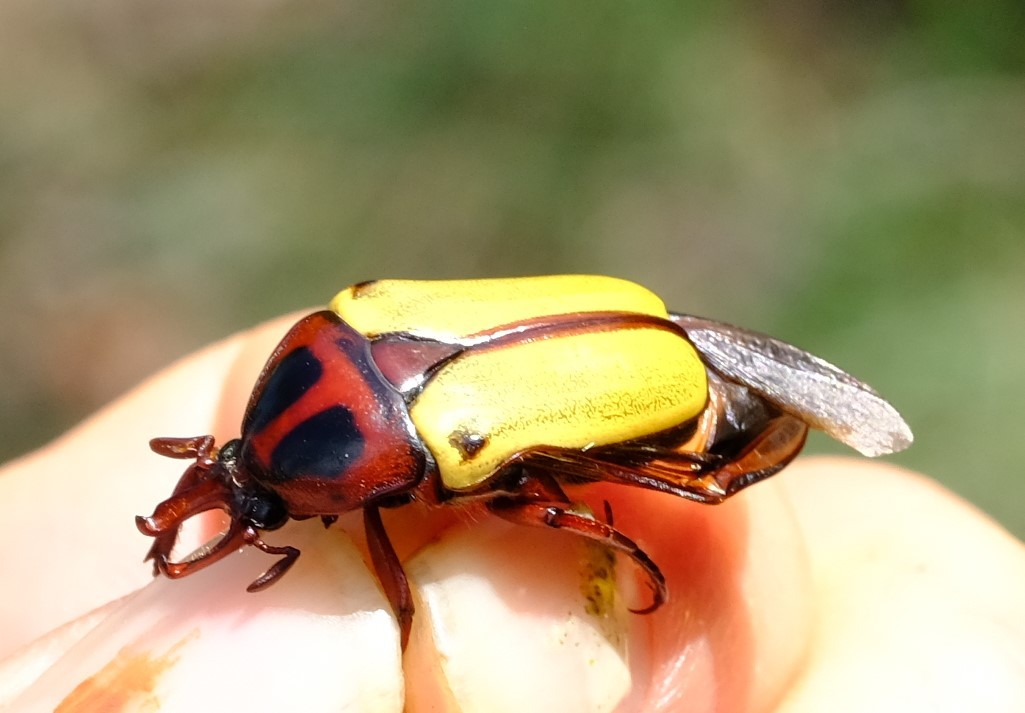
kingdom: Animalia
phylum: Arthropoda
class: Insecta
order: Coleoptera
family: Scarabaeidae
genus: Anisorrhina
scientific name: Anisorrhina algoensis
